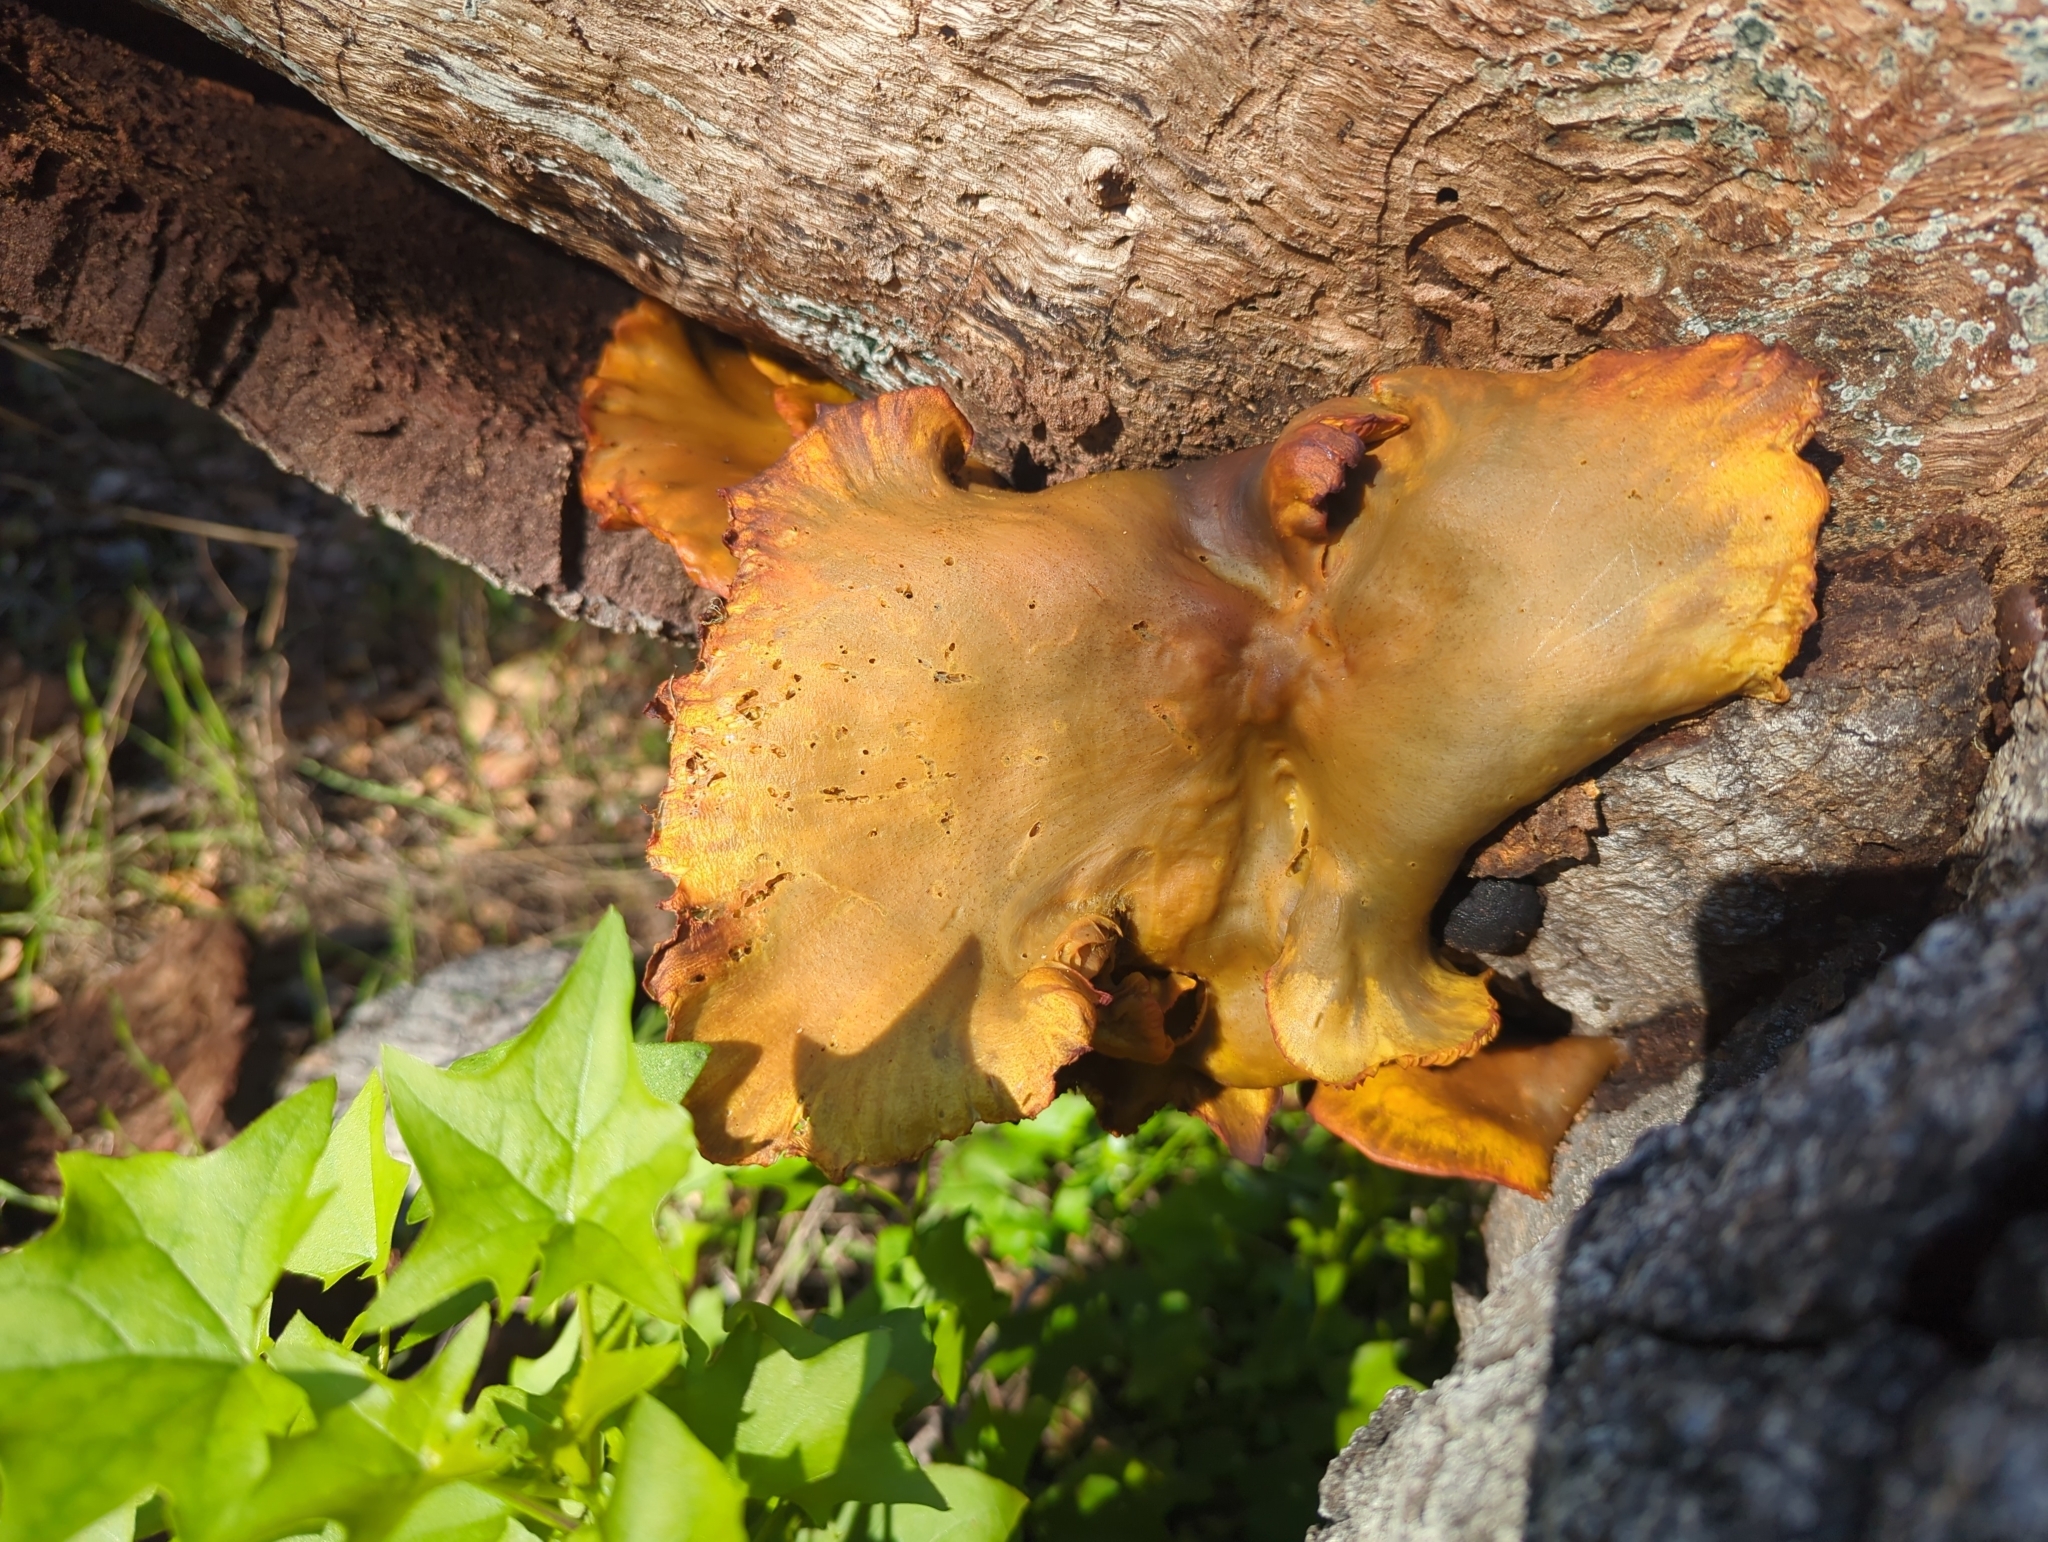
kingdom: Fungi
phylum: Basidiomycota
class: Agaricomycetes
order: Agaricales
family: Omphalotaceae
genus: Omphalotus
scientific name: Omphalotus olivascens
